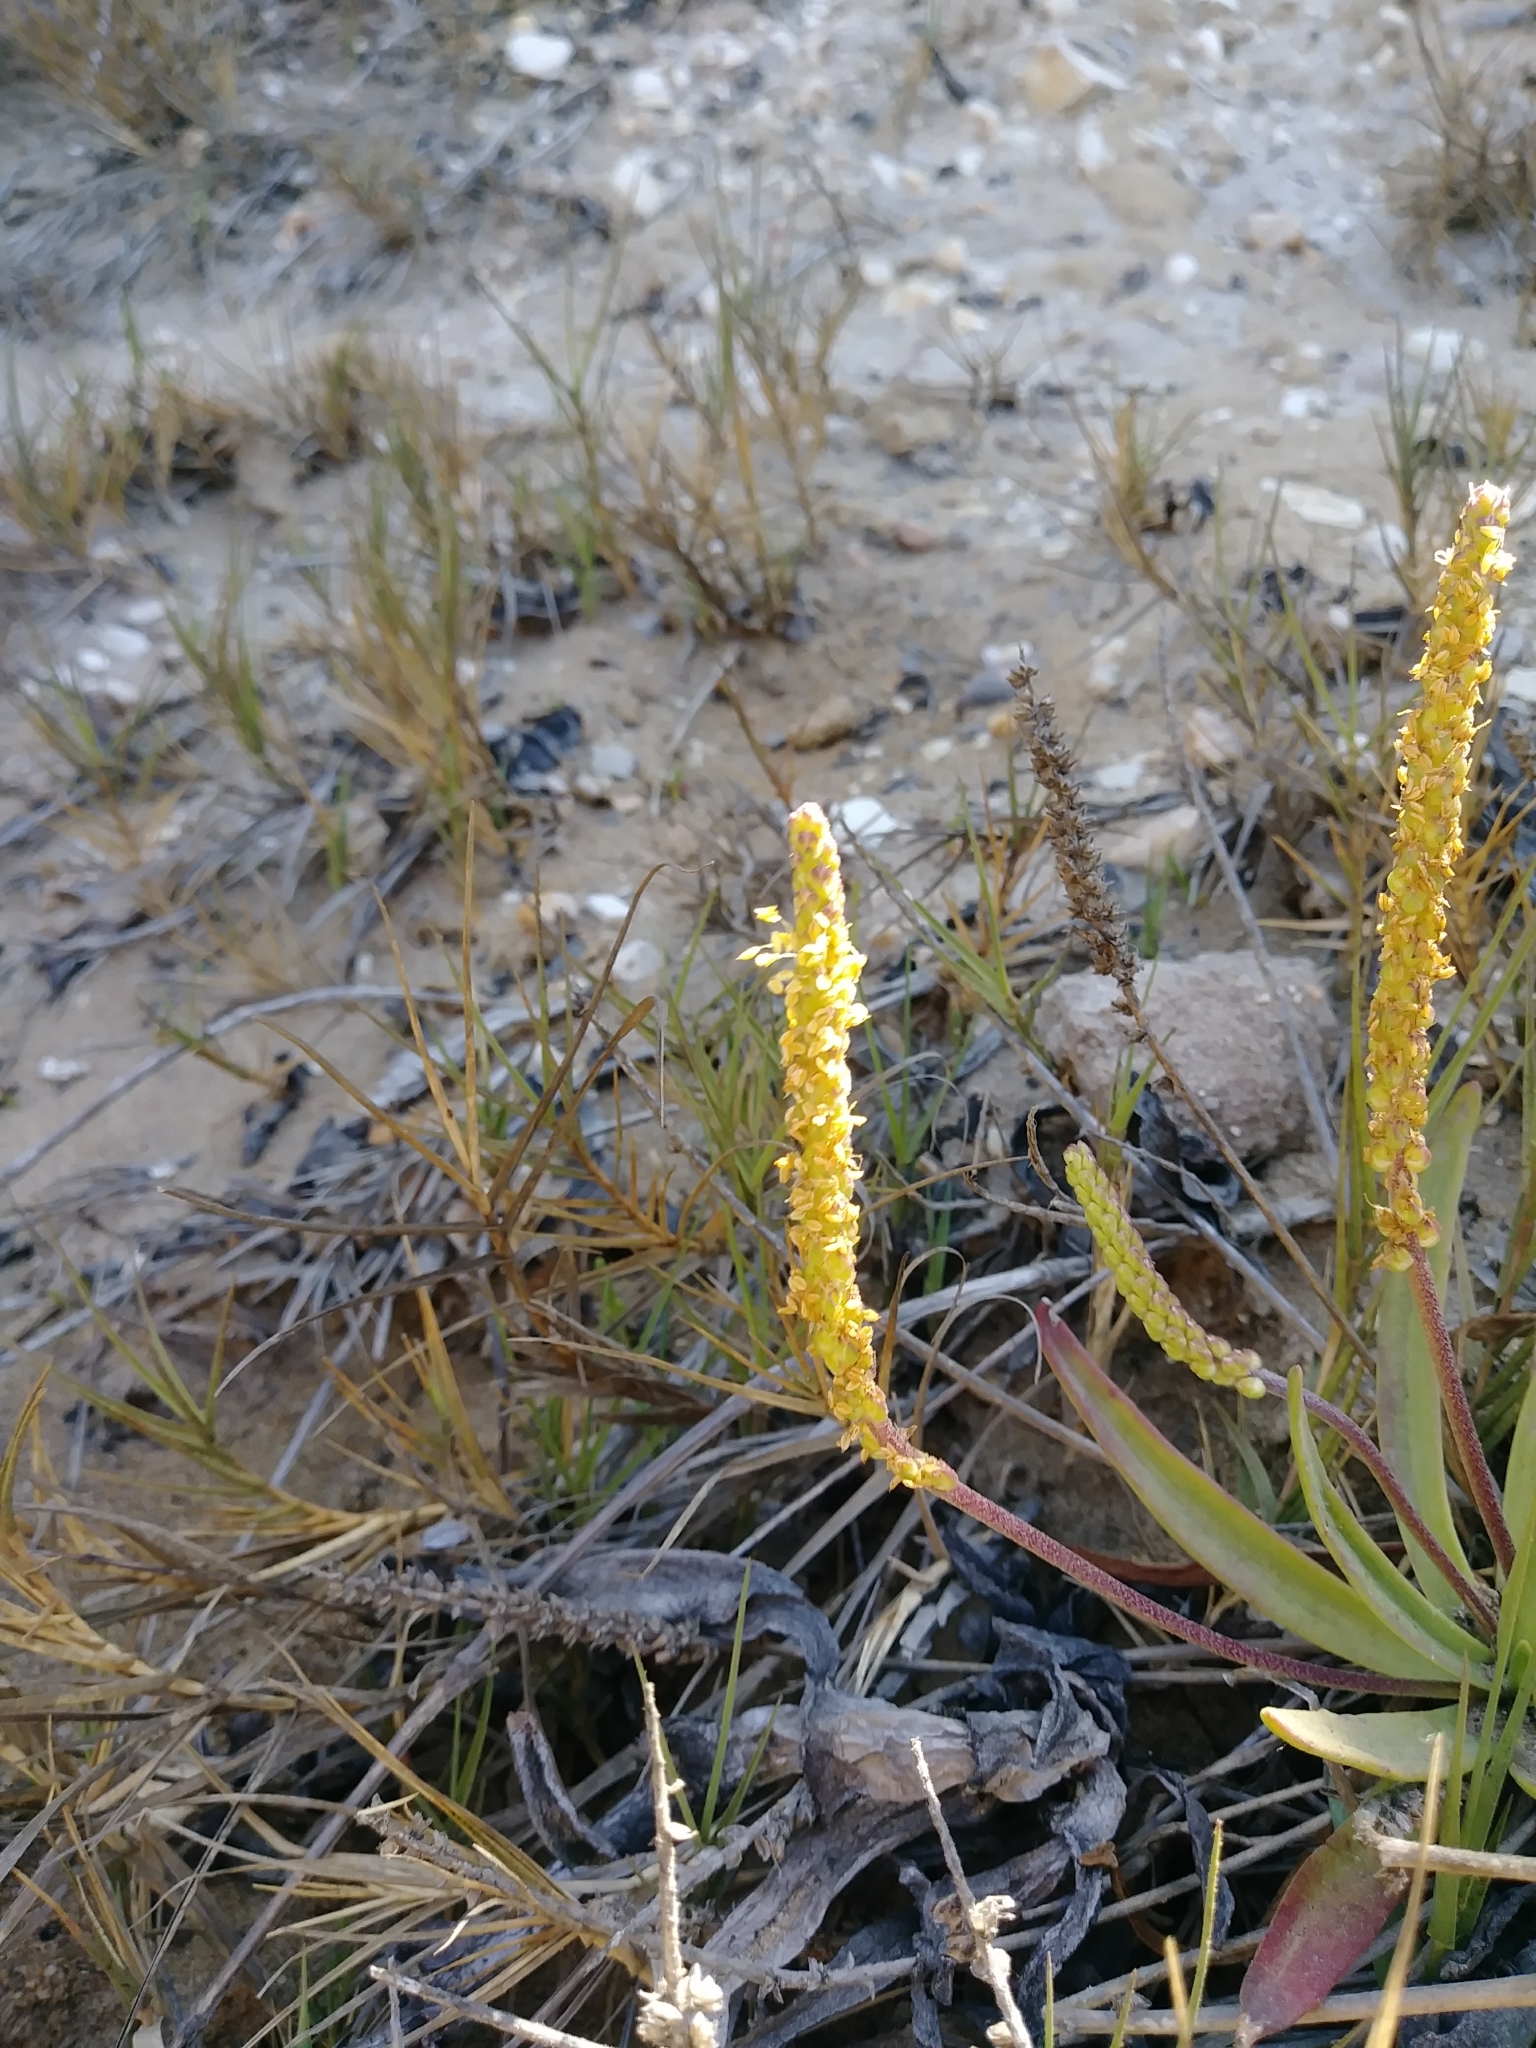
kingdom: Plantae
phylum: Tracheophyta
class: Magnoliopsida
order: Lamiales
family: Plantaginaceae
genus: Plantago
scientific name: Plantago maritima
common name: Sea plantain
